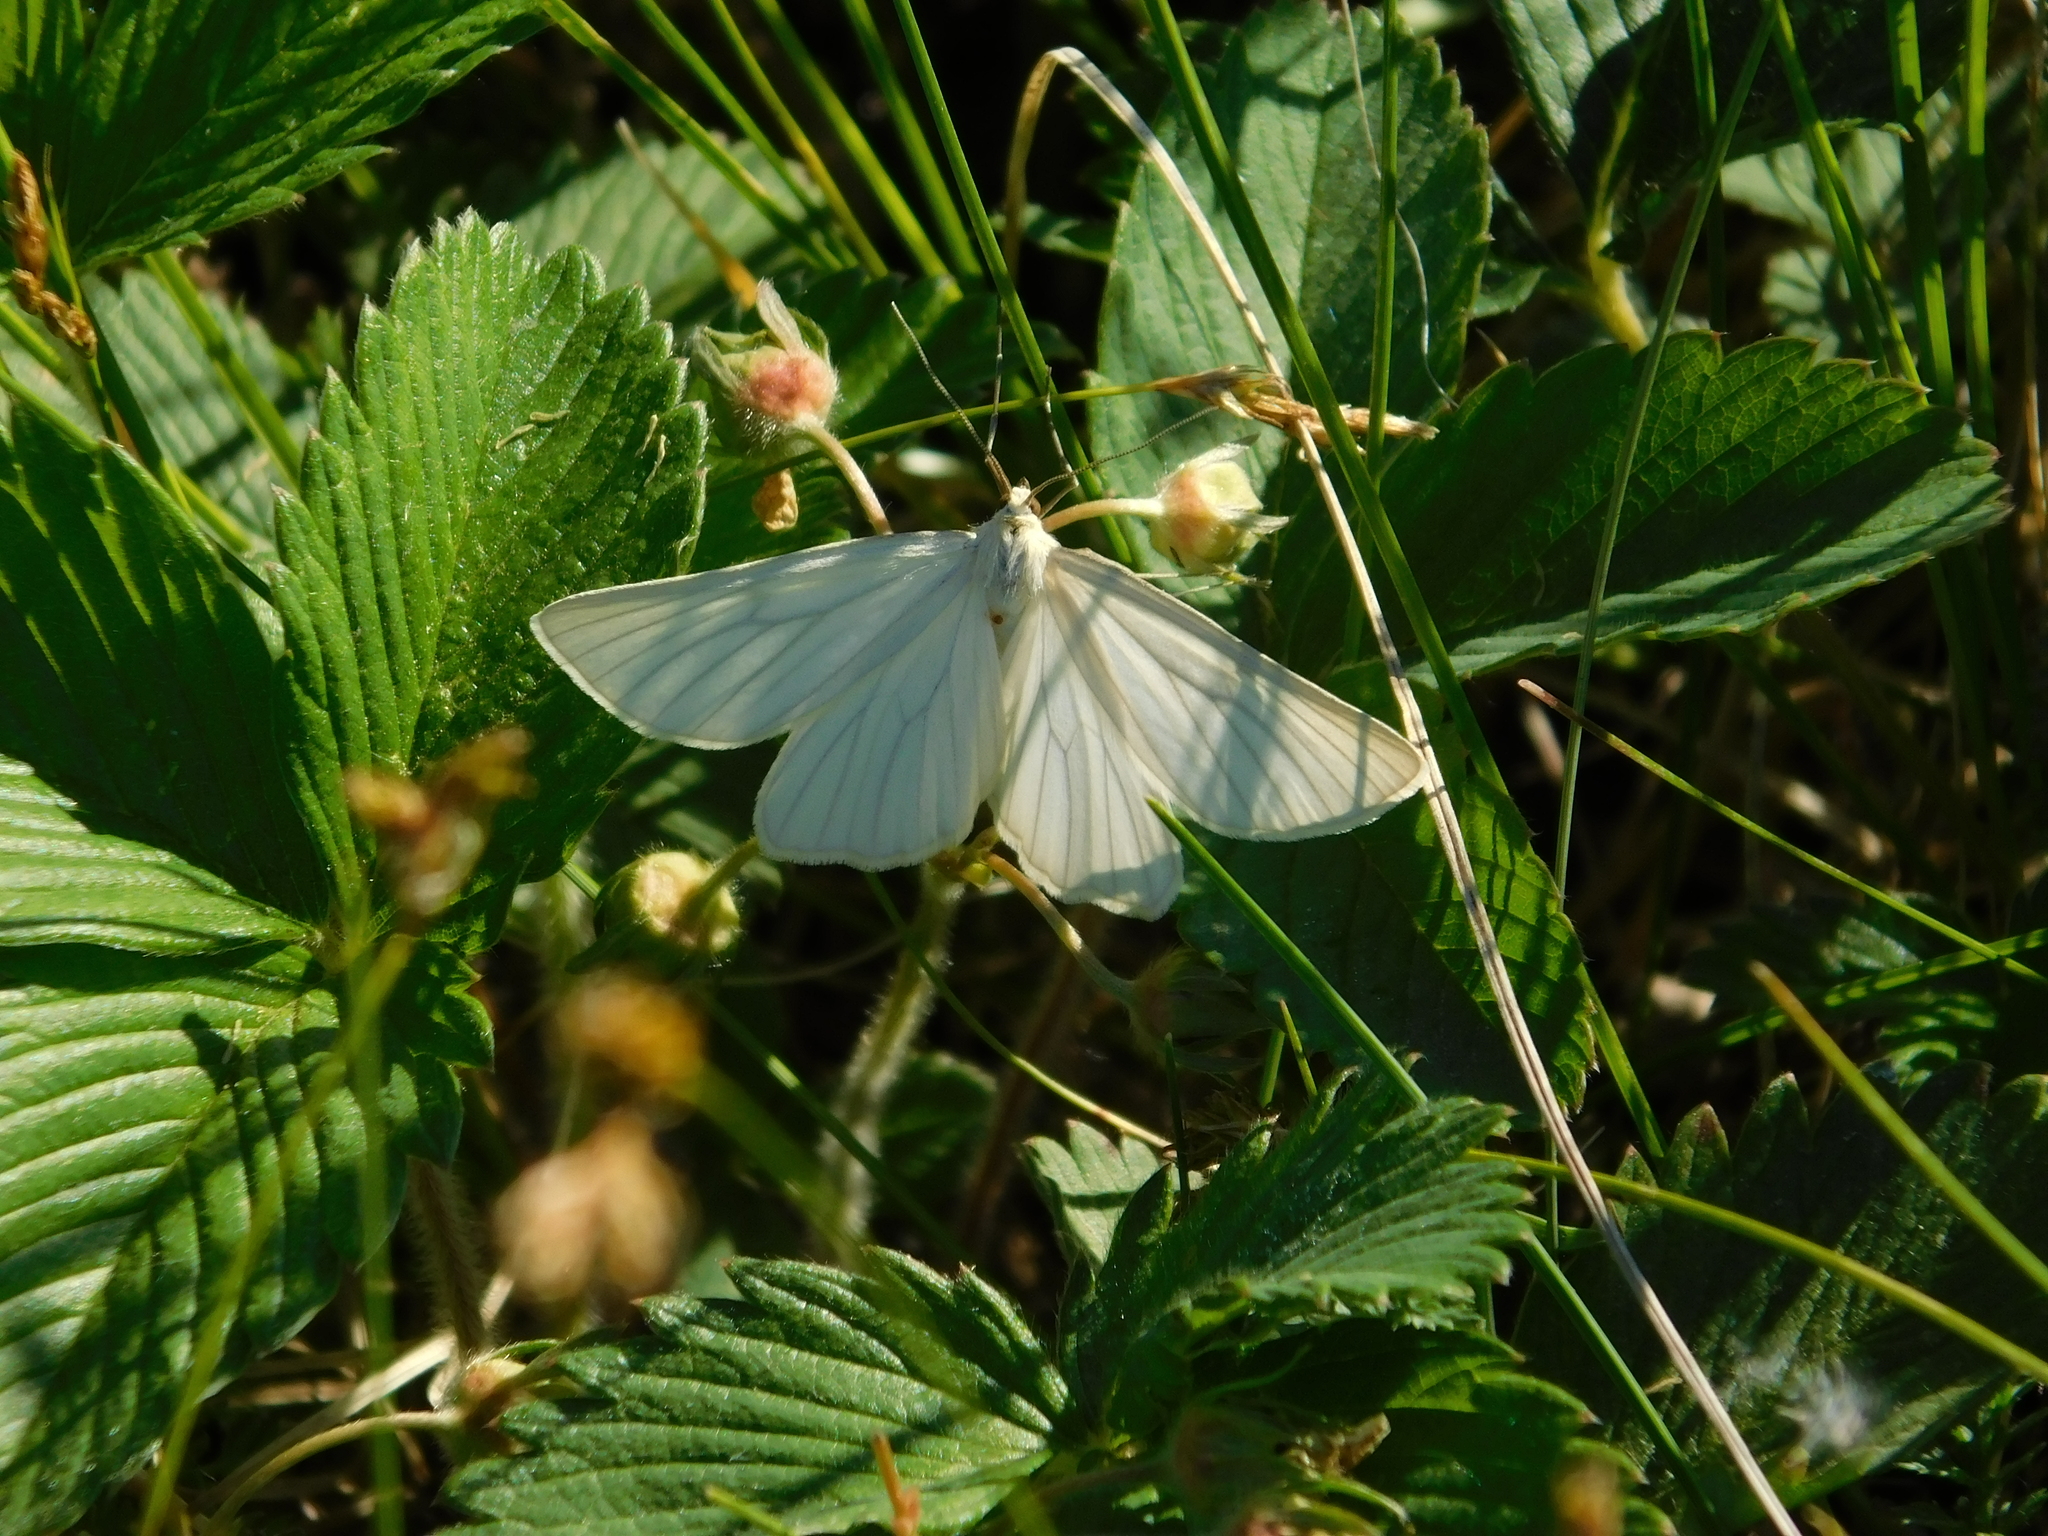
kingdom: Animalia
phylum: Arthropoda
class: Insecta
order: Lepidoptera
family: Geometridae
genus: Siona
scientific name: Siona lineata
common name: Black-veined moth
